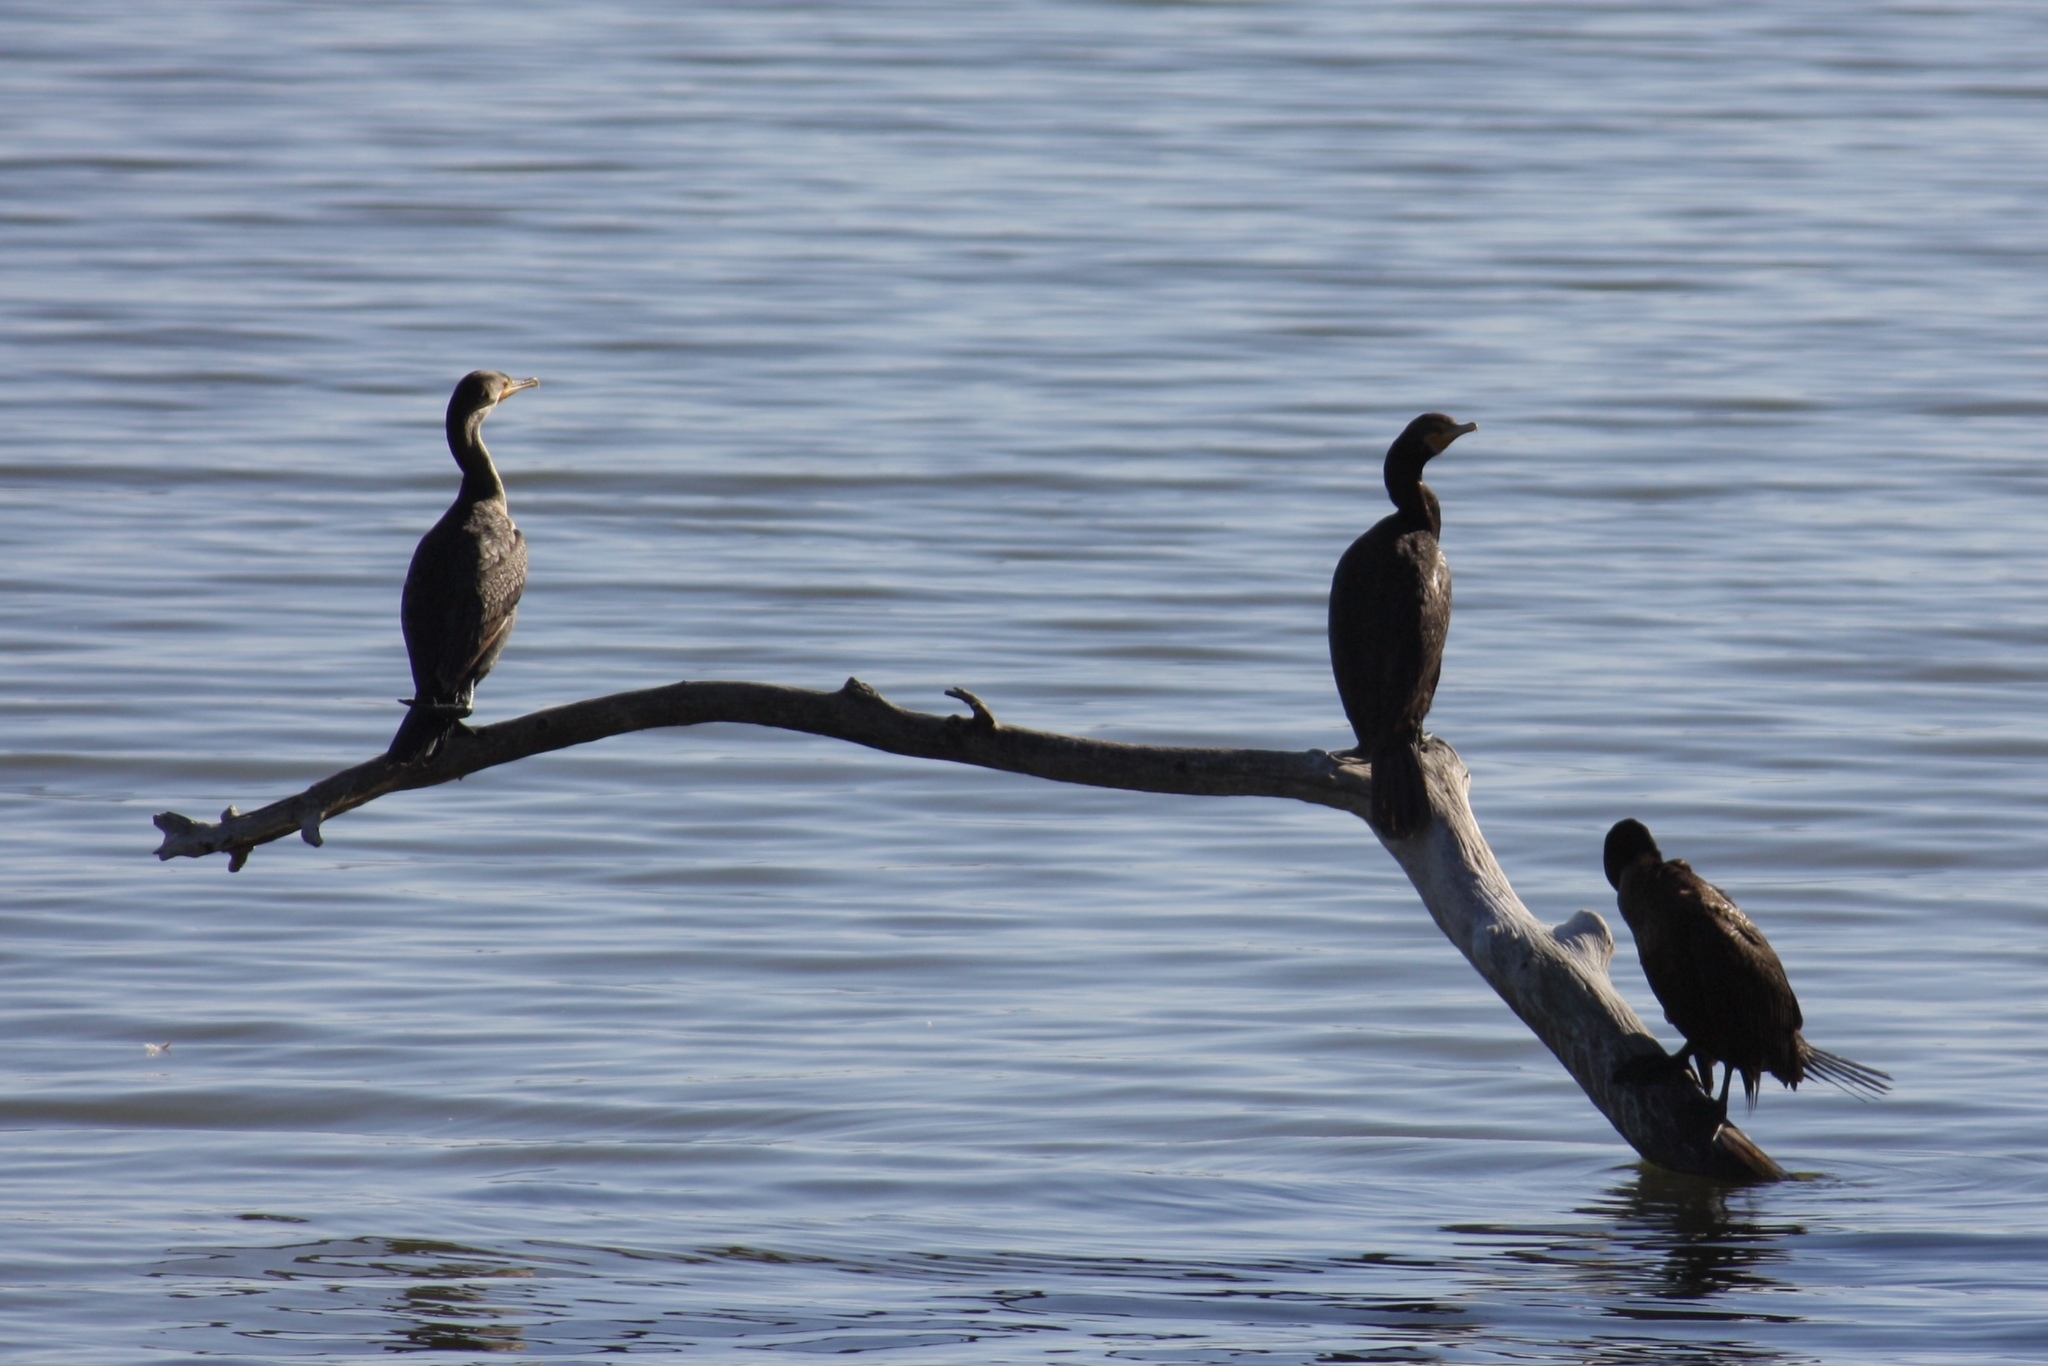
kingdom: Animalia
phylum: Chordata
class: Aves
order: Suliformes
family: Phalacrocoracidae
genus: Phalacrocorax
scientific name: Phalacrocorax auritus
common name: Double-crested cormorant
